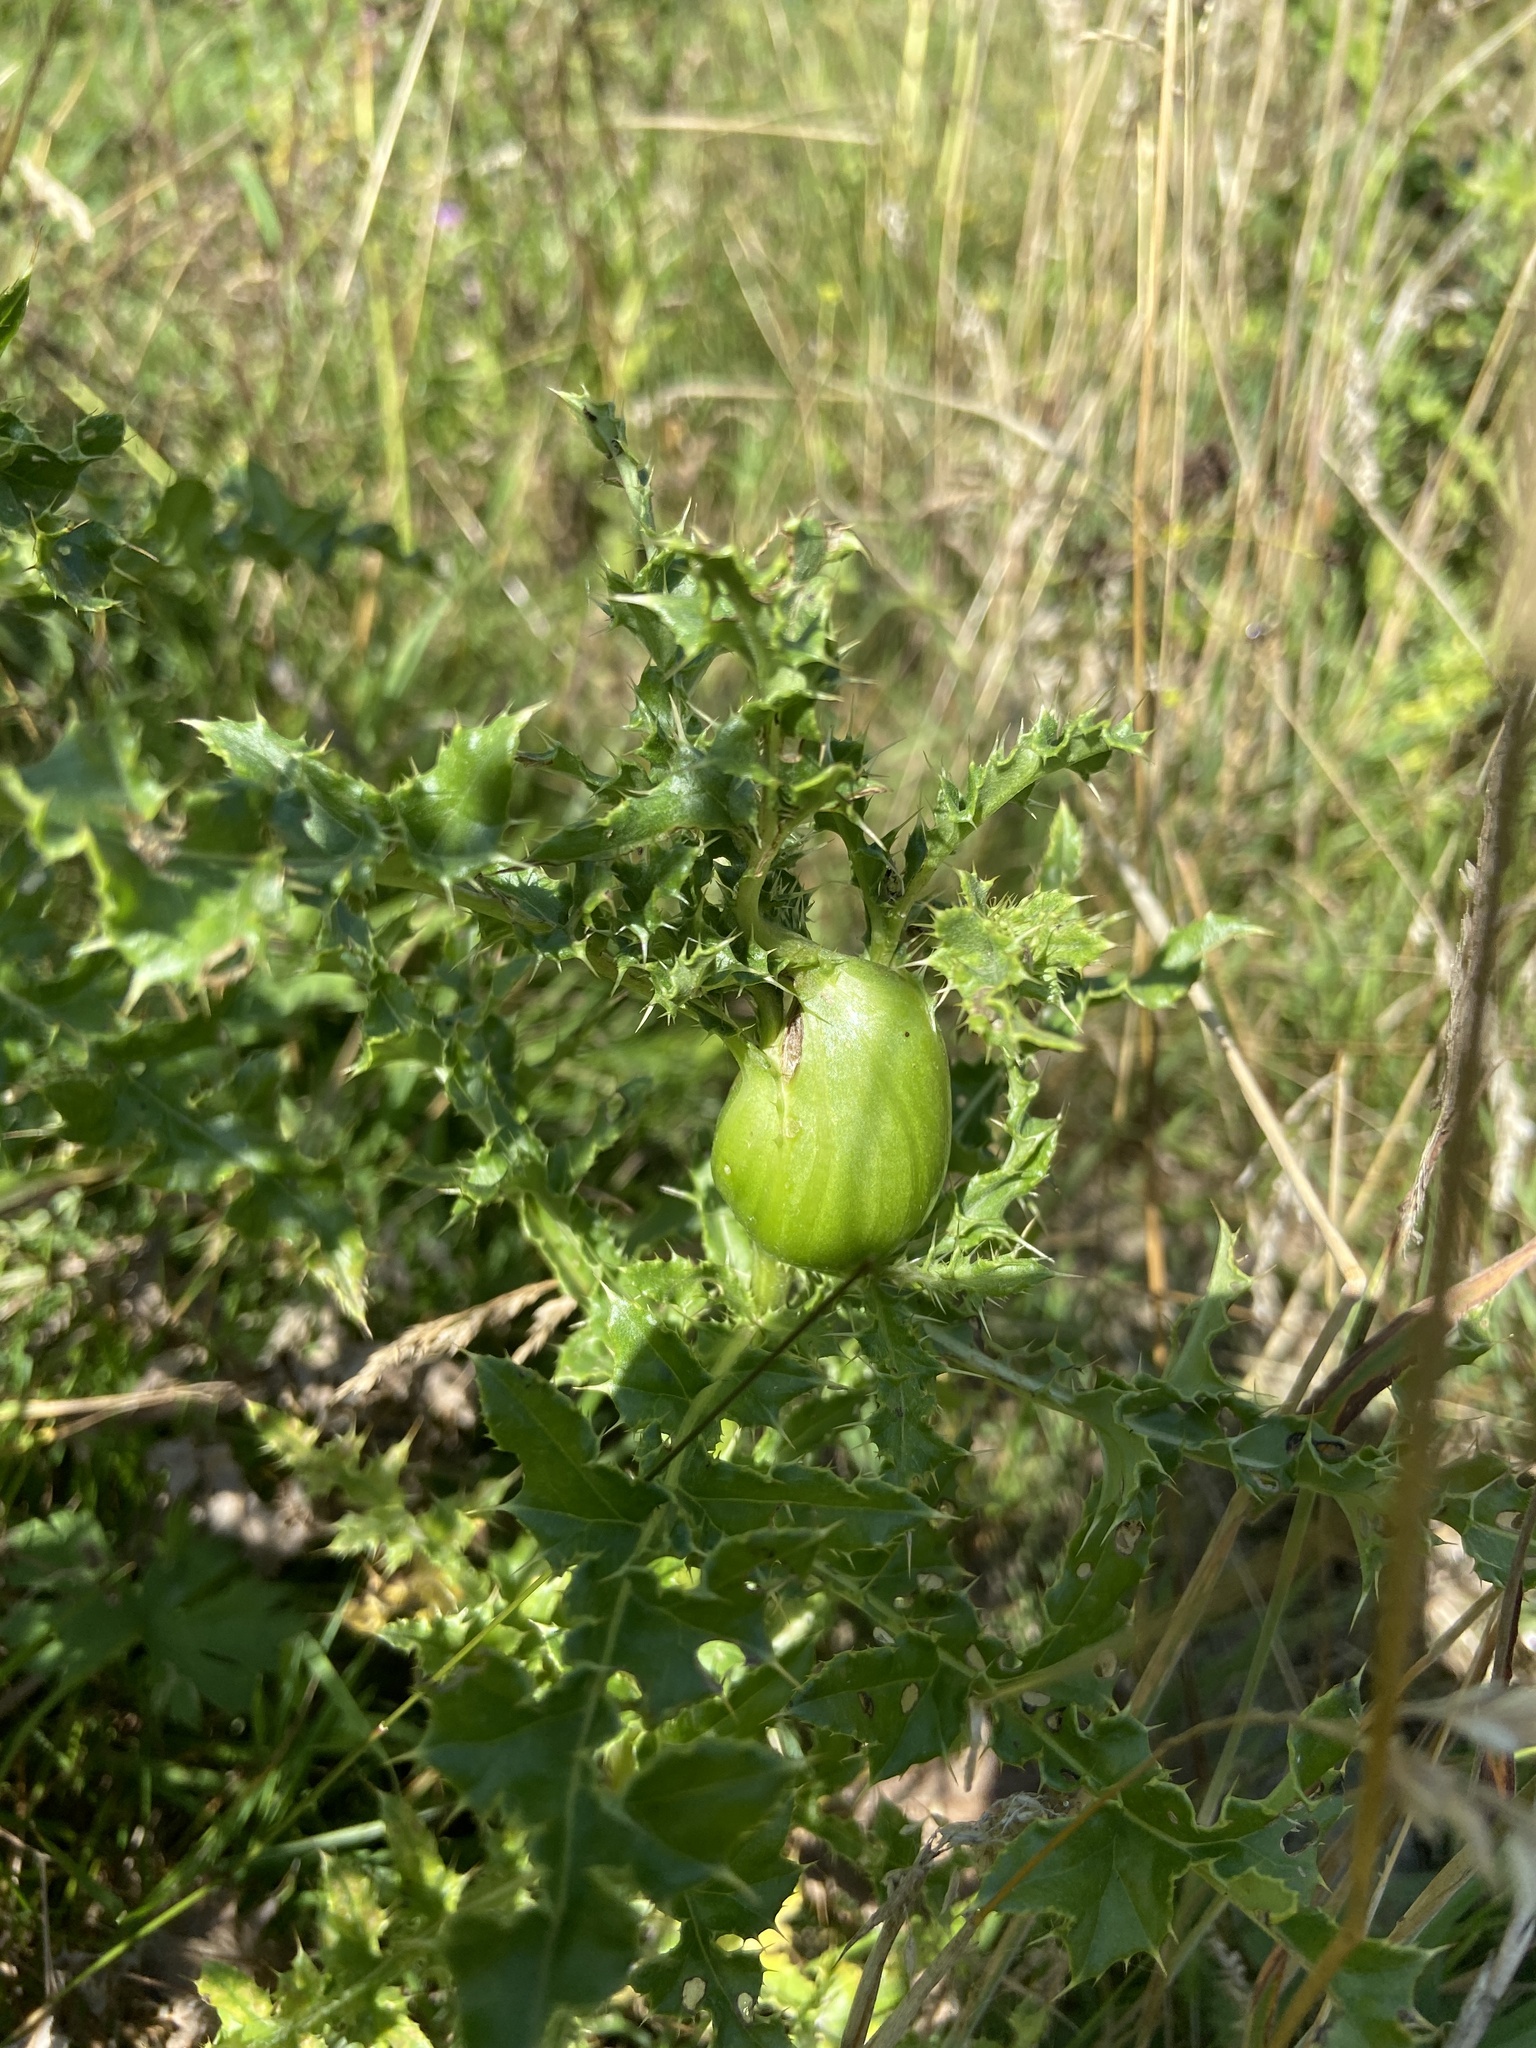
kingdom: Animalia
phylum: Arthropoda
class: Insecta
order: Diptera
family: Tephritidae
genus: Urophora
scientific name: Urophora cardui
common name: Fruit fly
